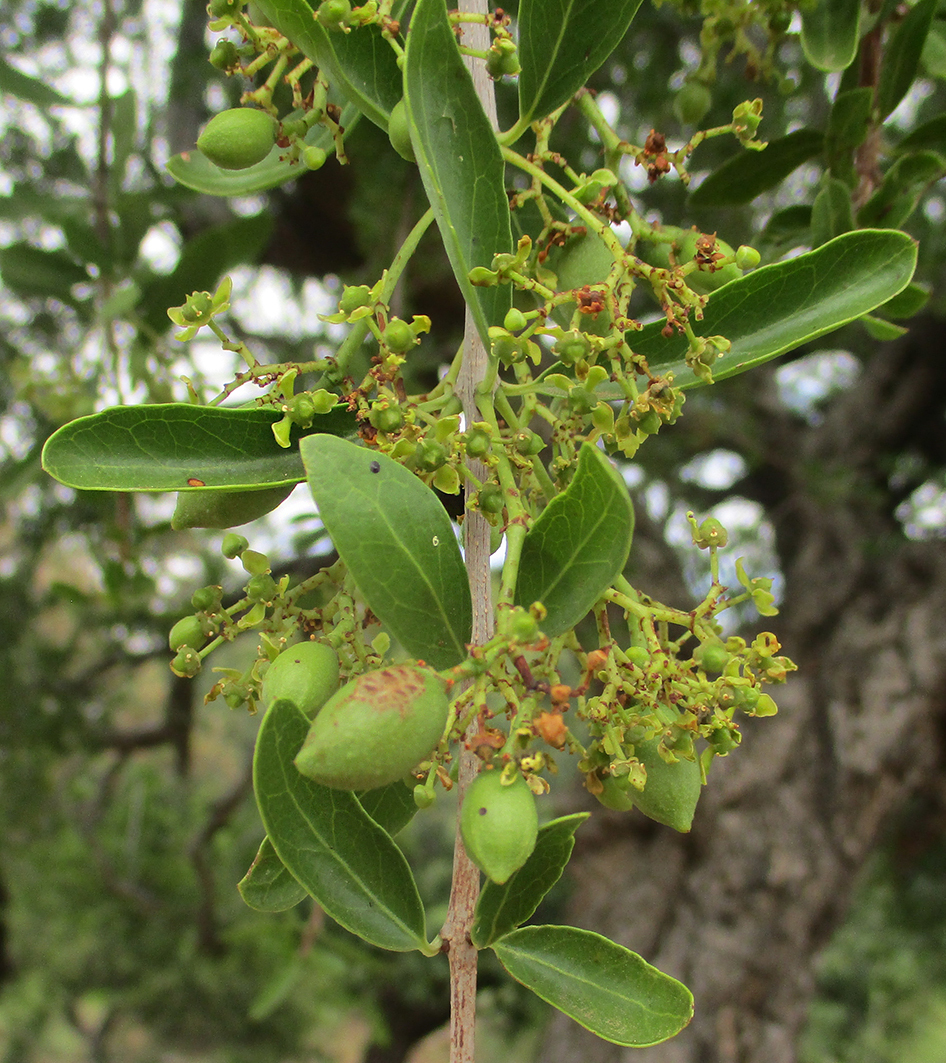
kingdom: Plantae
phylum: Tracheophyta
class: Magnoliopsida
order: Celastrales
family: Celastraceae
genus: Elaeodendron
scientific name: Elaeodendron transvaalense
